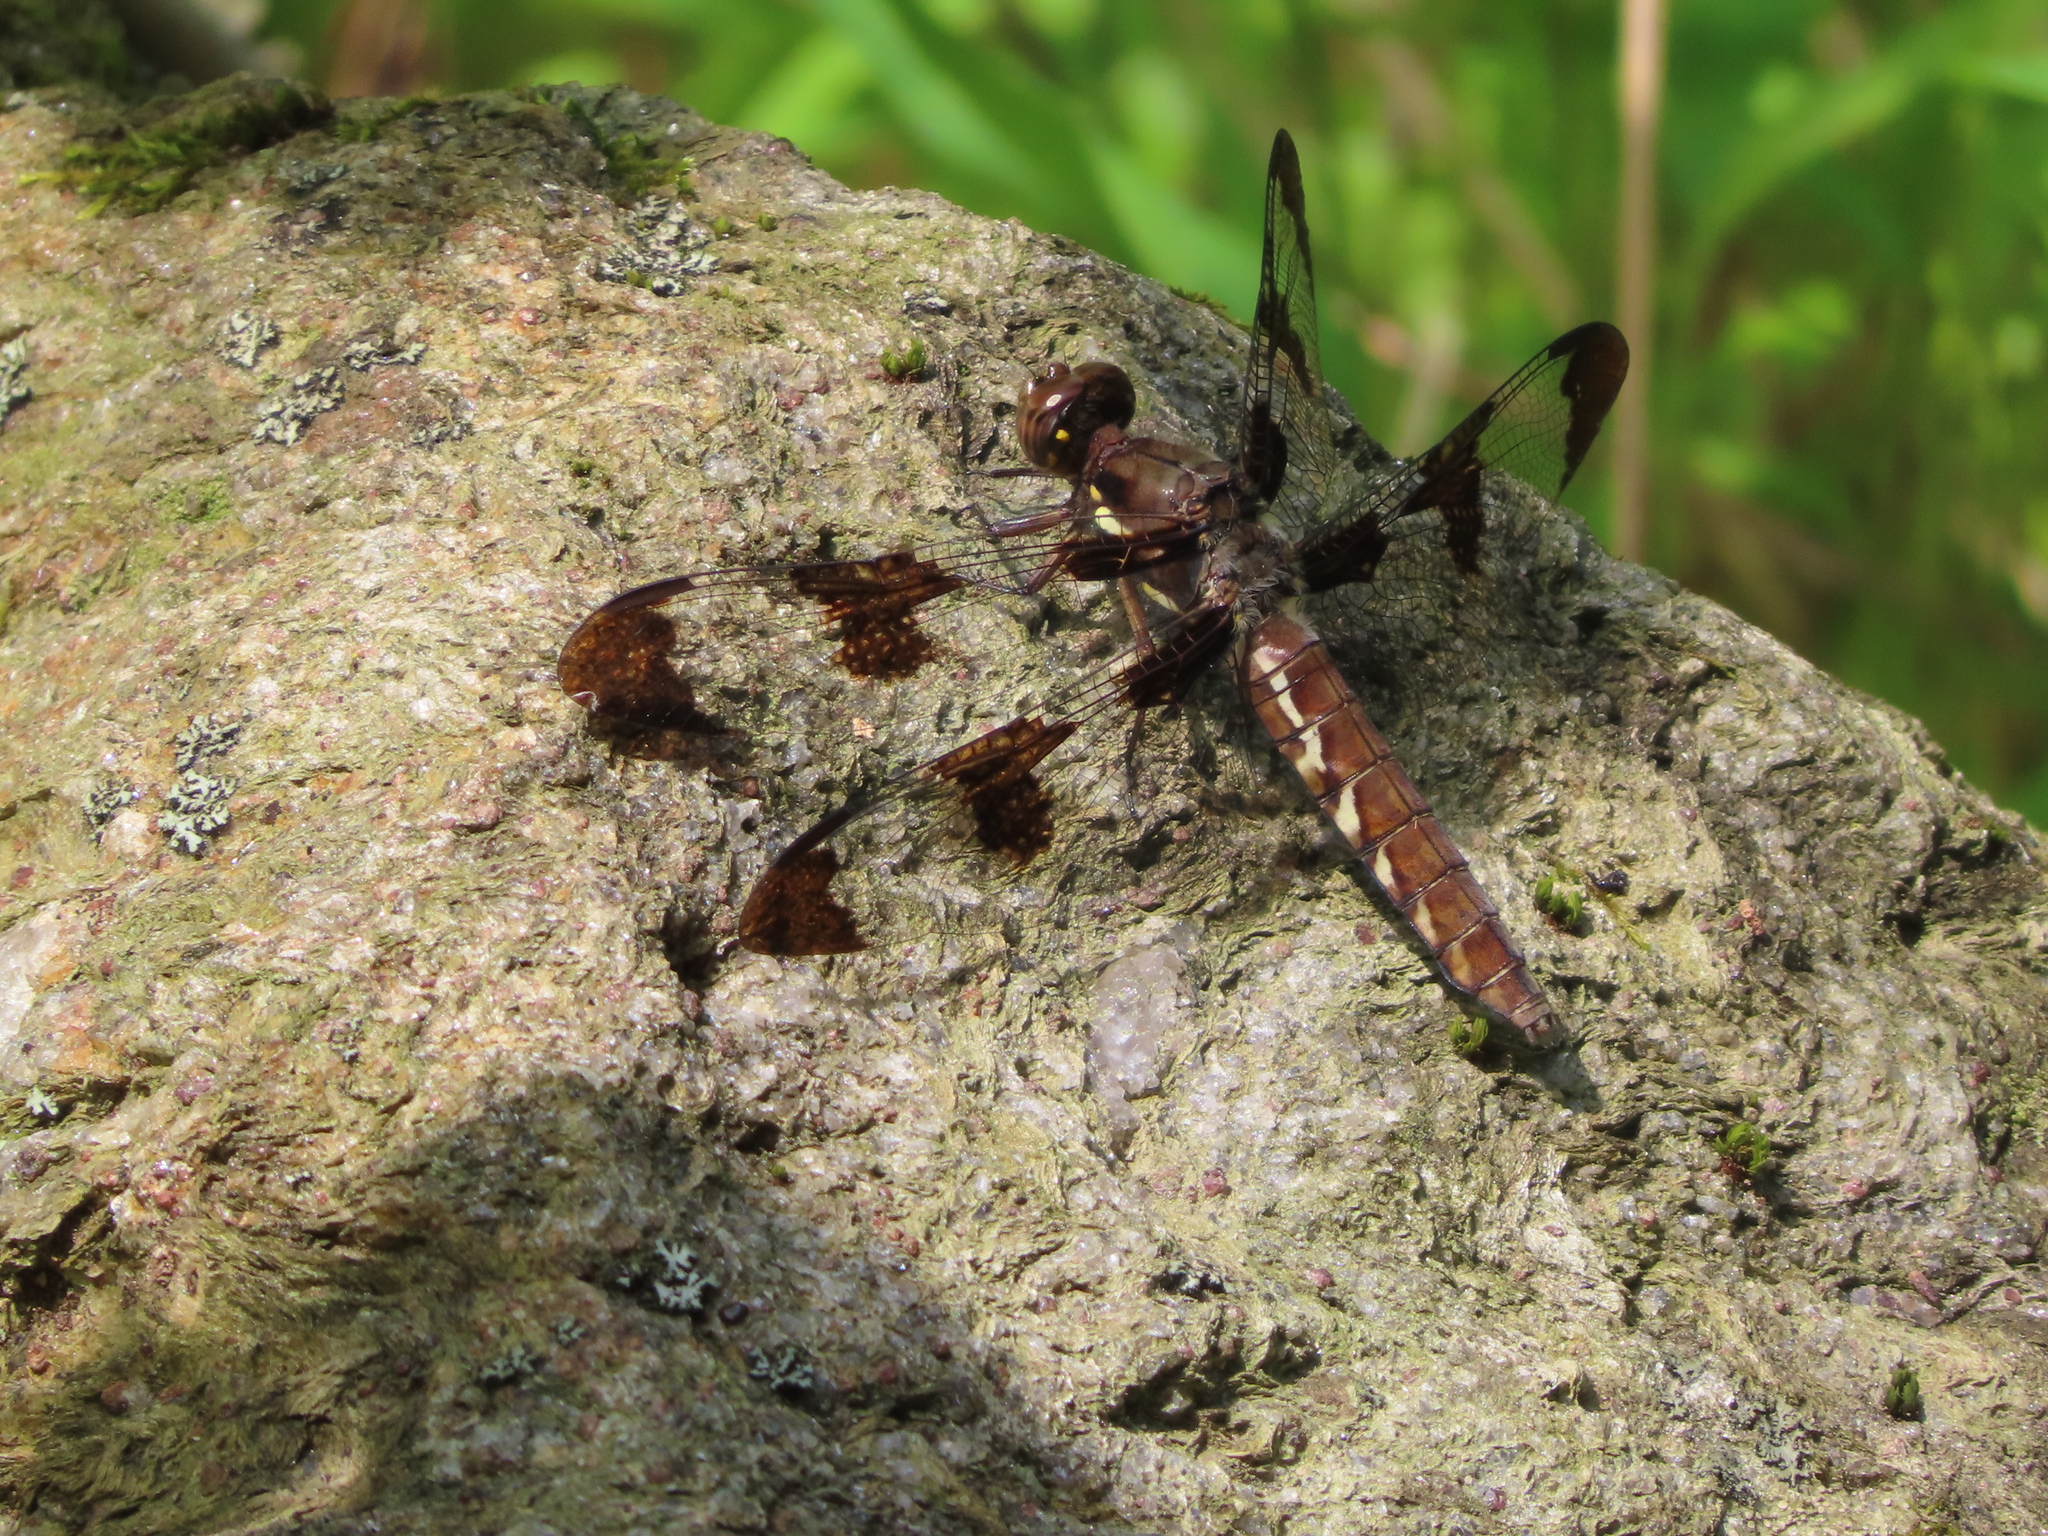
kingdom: Animalia
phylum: Arthropoda
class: Insecta
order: Odonata
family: Libellulidae
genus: Plathemis
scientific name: Plathemis lydia
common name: Common whitetail
